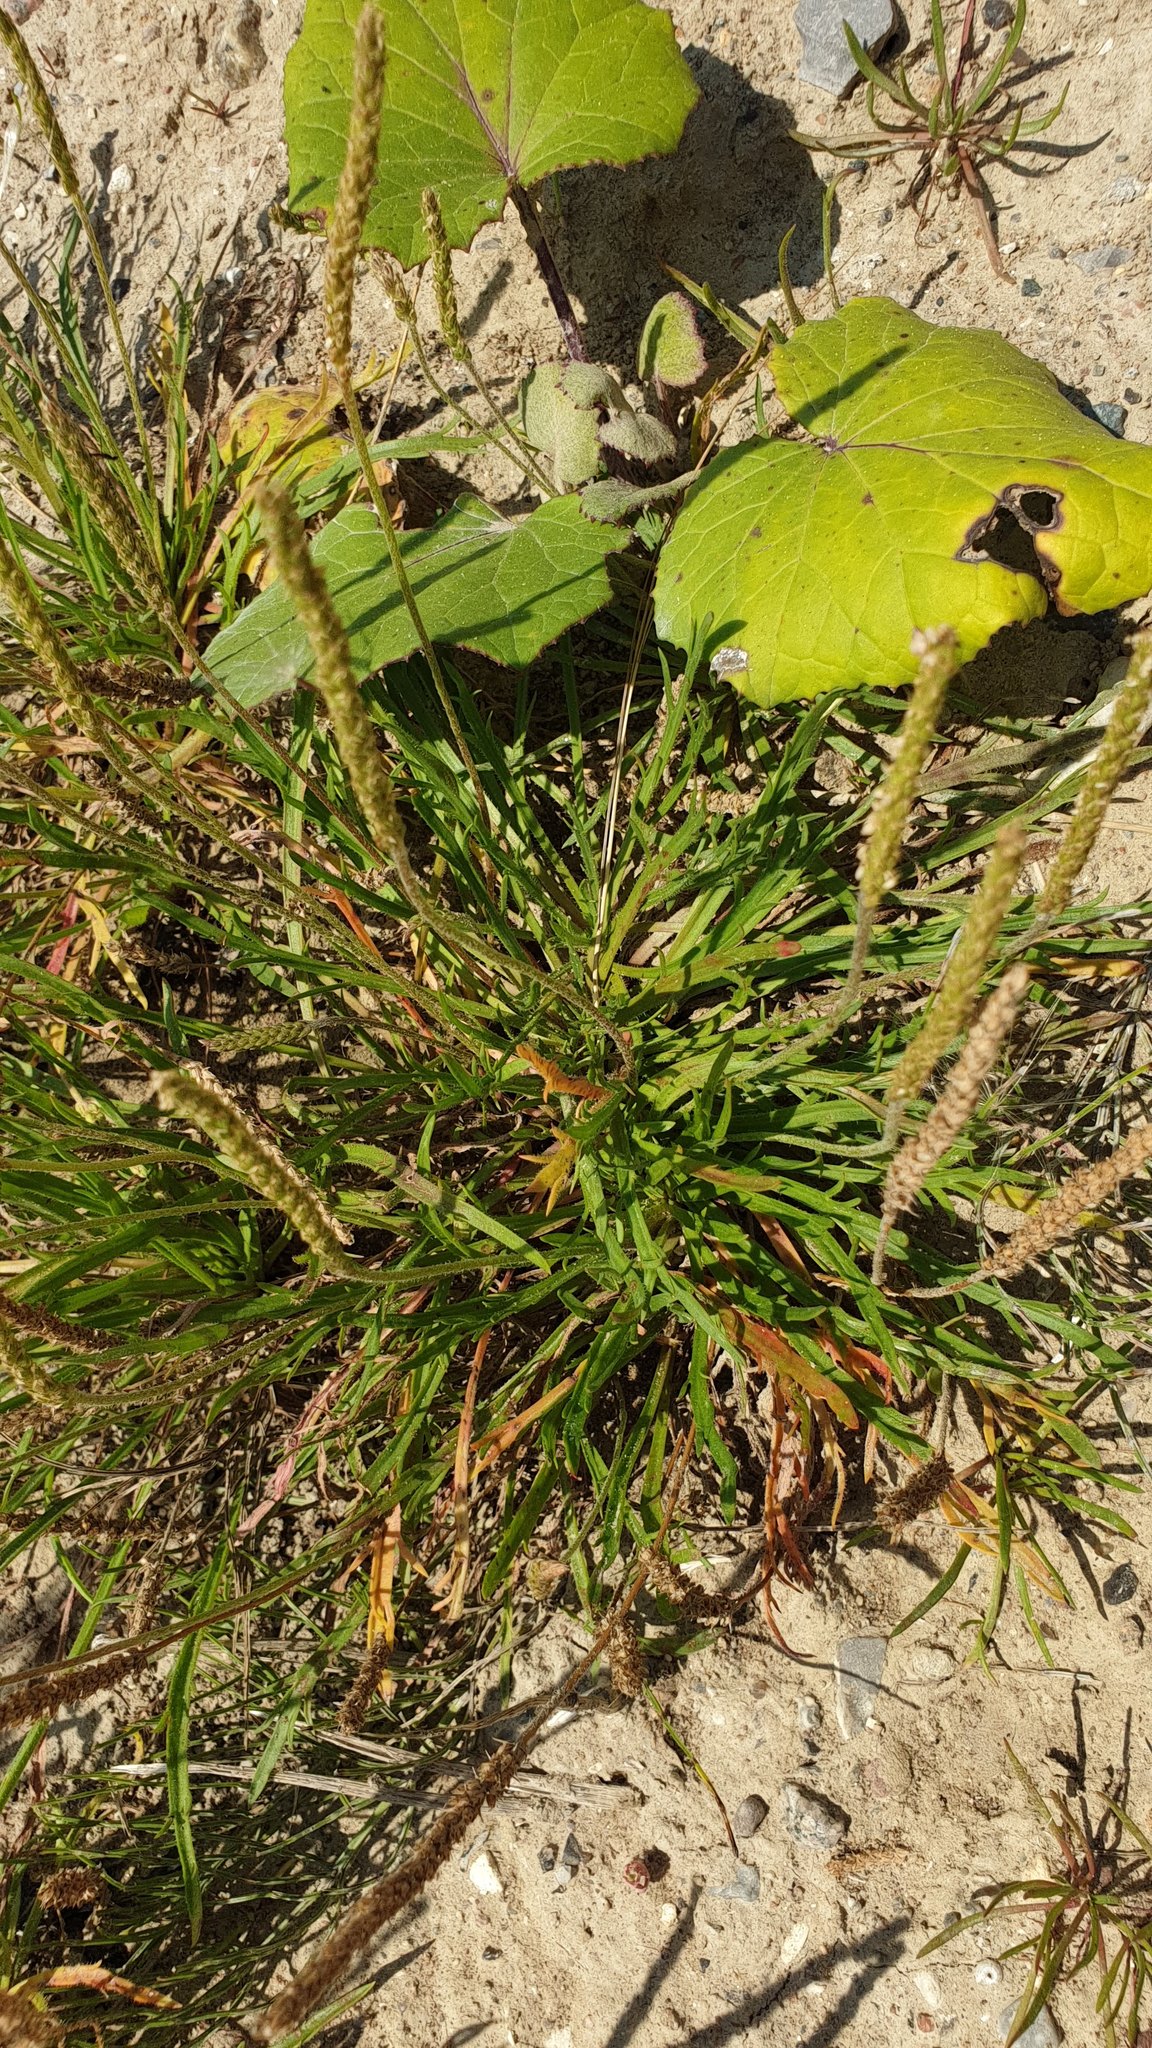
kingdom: Plantae
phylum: Tracheophyta
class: Magnoliopsida
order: Lamiales
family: Plantaginaceae
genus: Plantago
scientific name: Plantago coronopus
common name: Buck's-horn plantain
